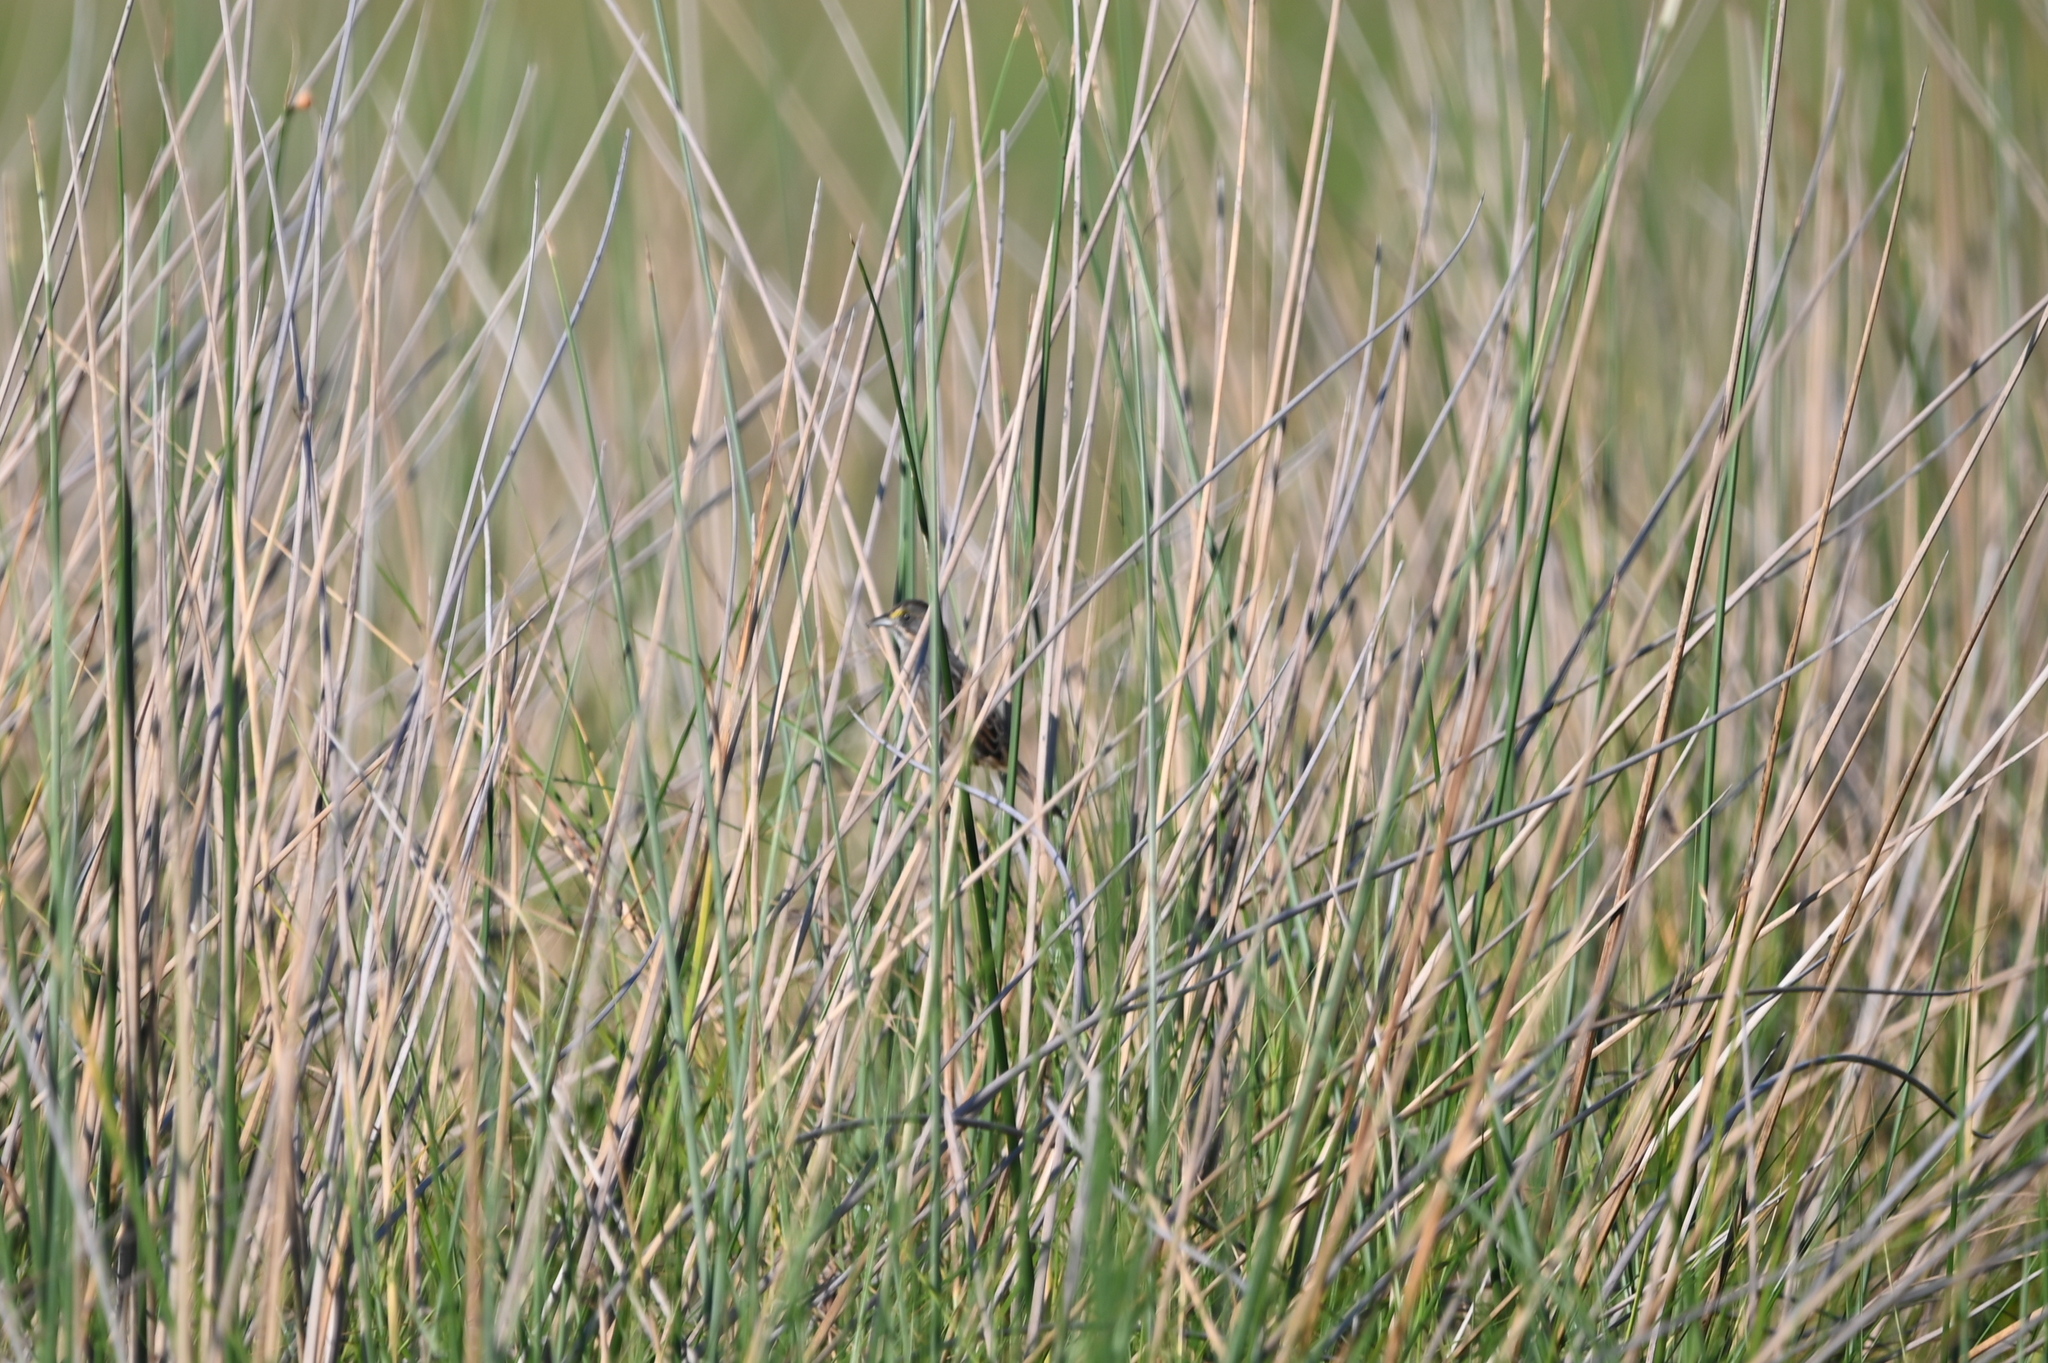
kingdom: Animalia
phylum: Chordata
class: Aves
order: Passeriformes
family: Passerellidae
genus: Ammospiza
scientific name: Ammospiza maritima
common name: Seaside sparrow
